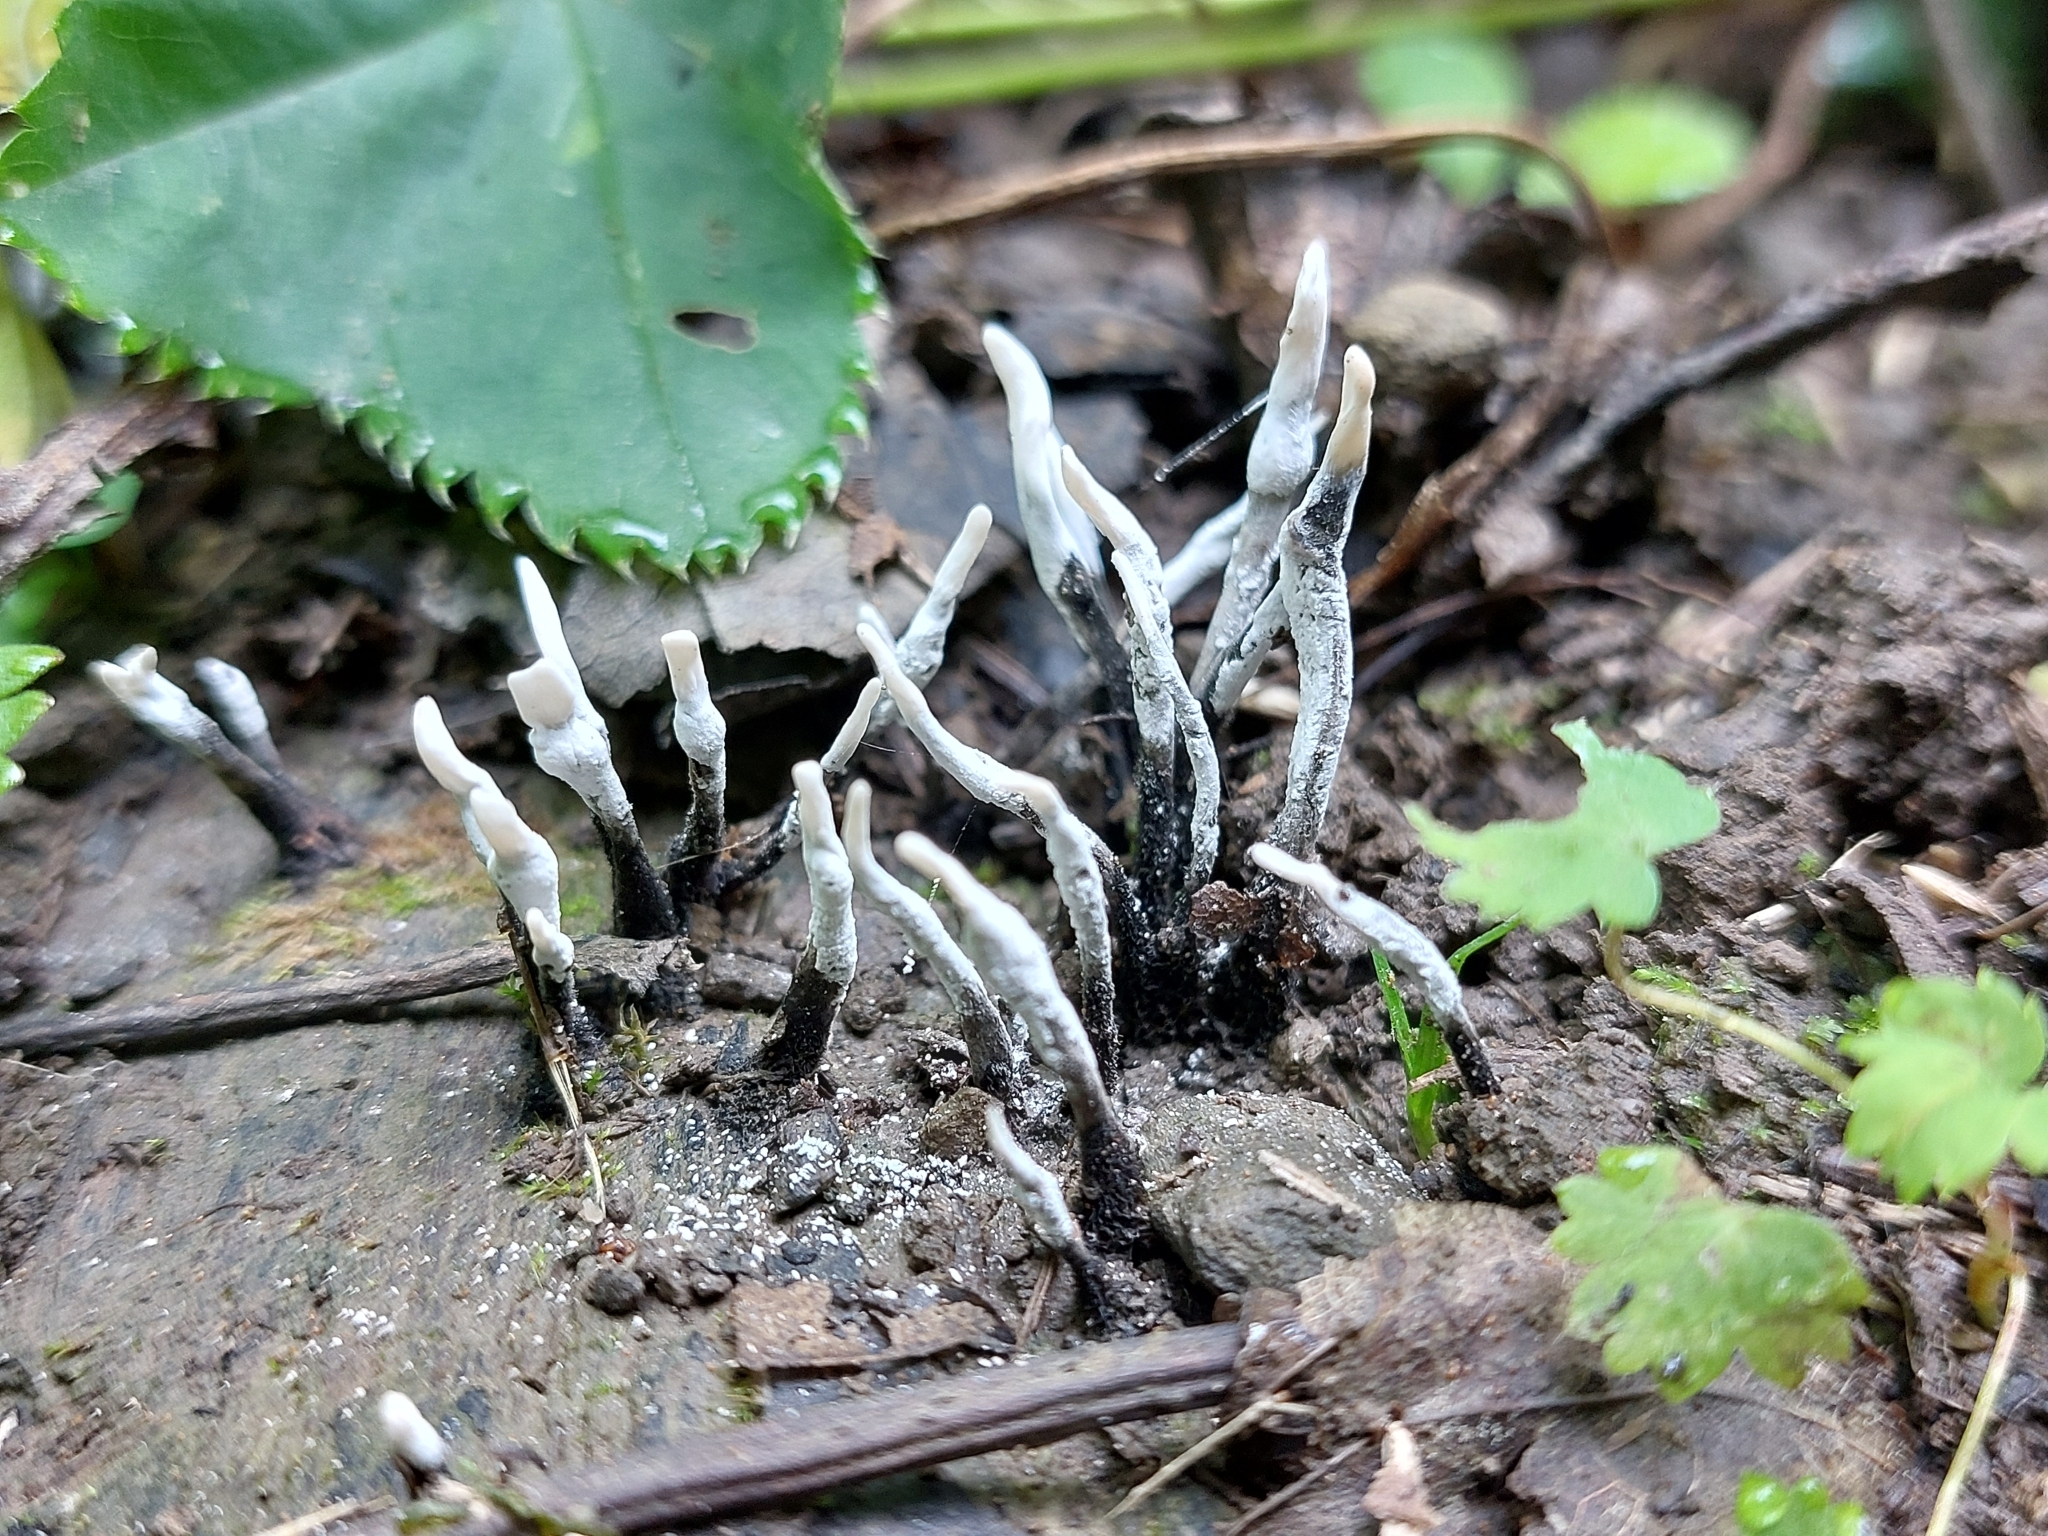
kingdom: Fungi
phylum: Ascomycota
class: Sordariomycetes
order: Xylariales
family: Xylariaceae
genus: Xylaria
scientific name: Xylaria hypoxylon
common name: Candle-snuff fungus
